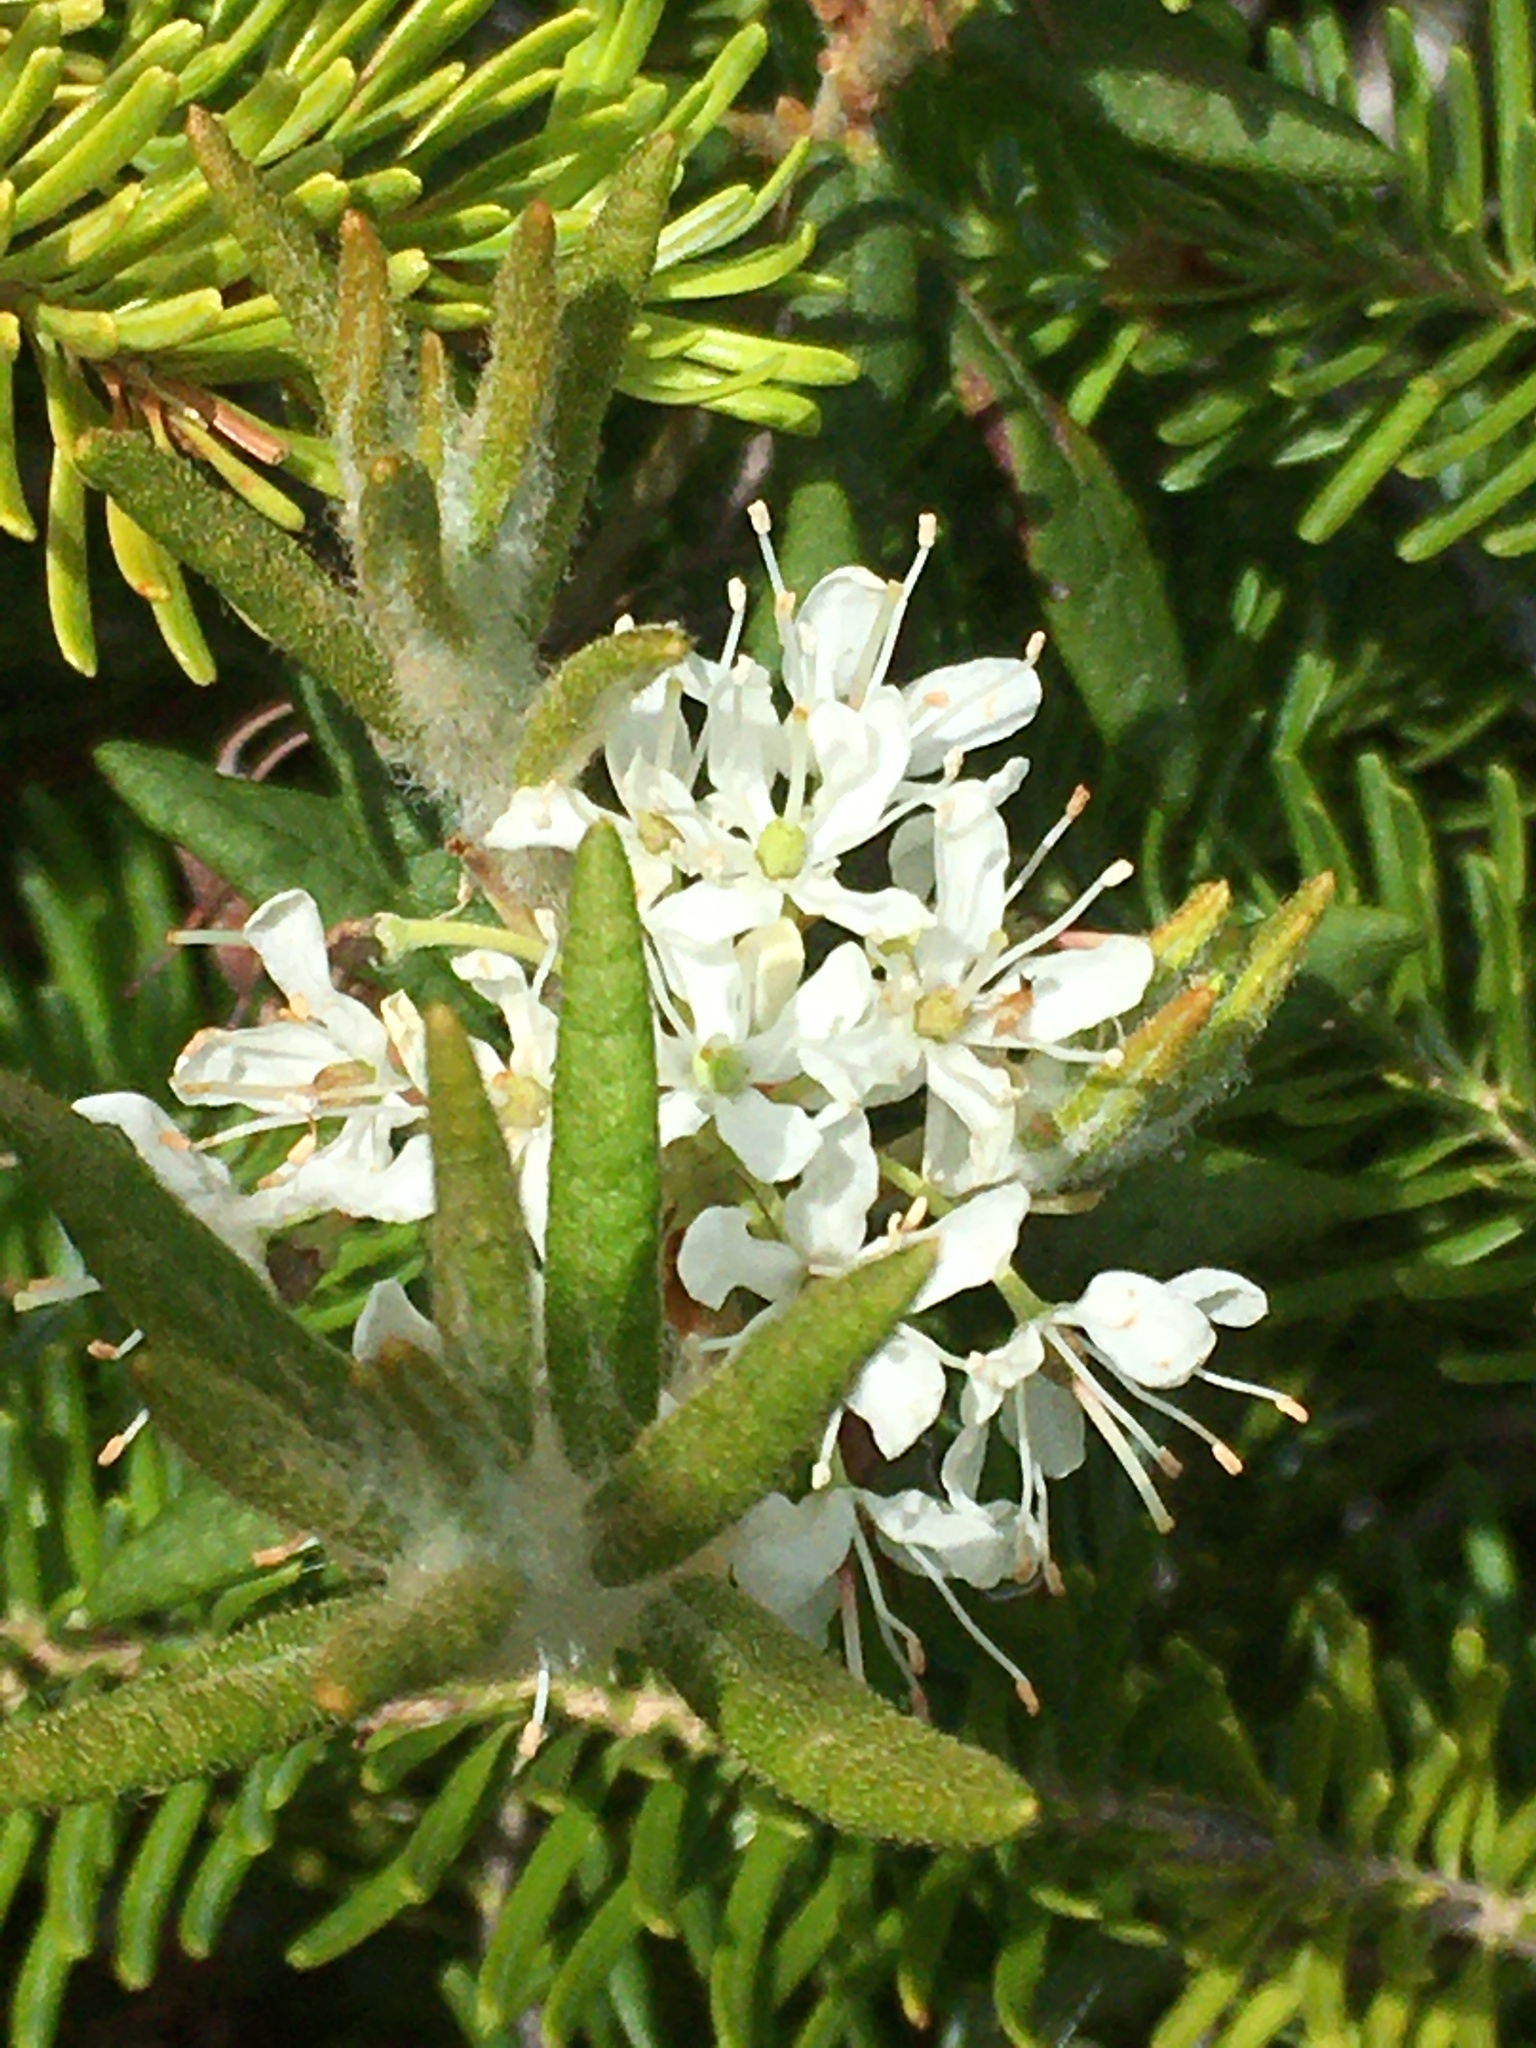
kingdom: Plantae
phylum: Tracheophyta
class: Magnoliopsida
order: Ericales
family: Ericaceae
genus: Rhododendron
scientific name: Rhododendron groenlandicum
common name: Bog labrador tea
